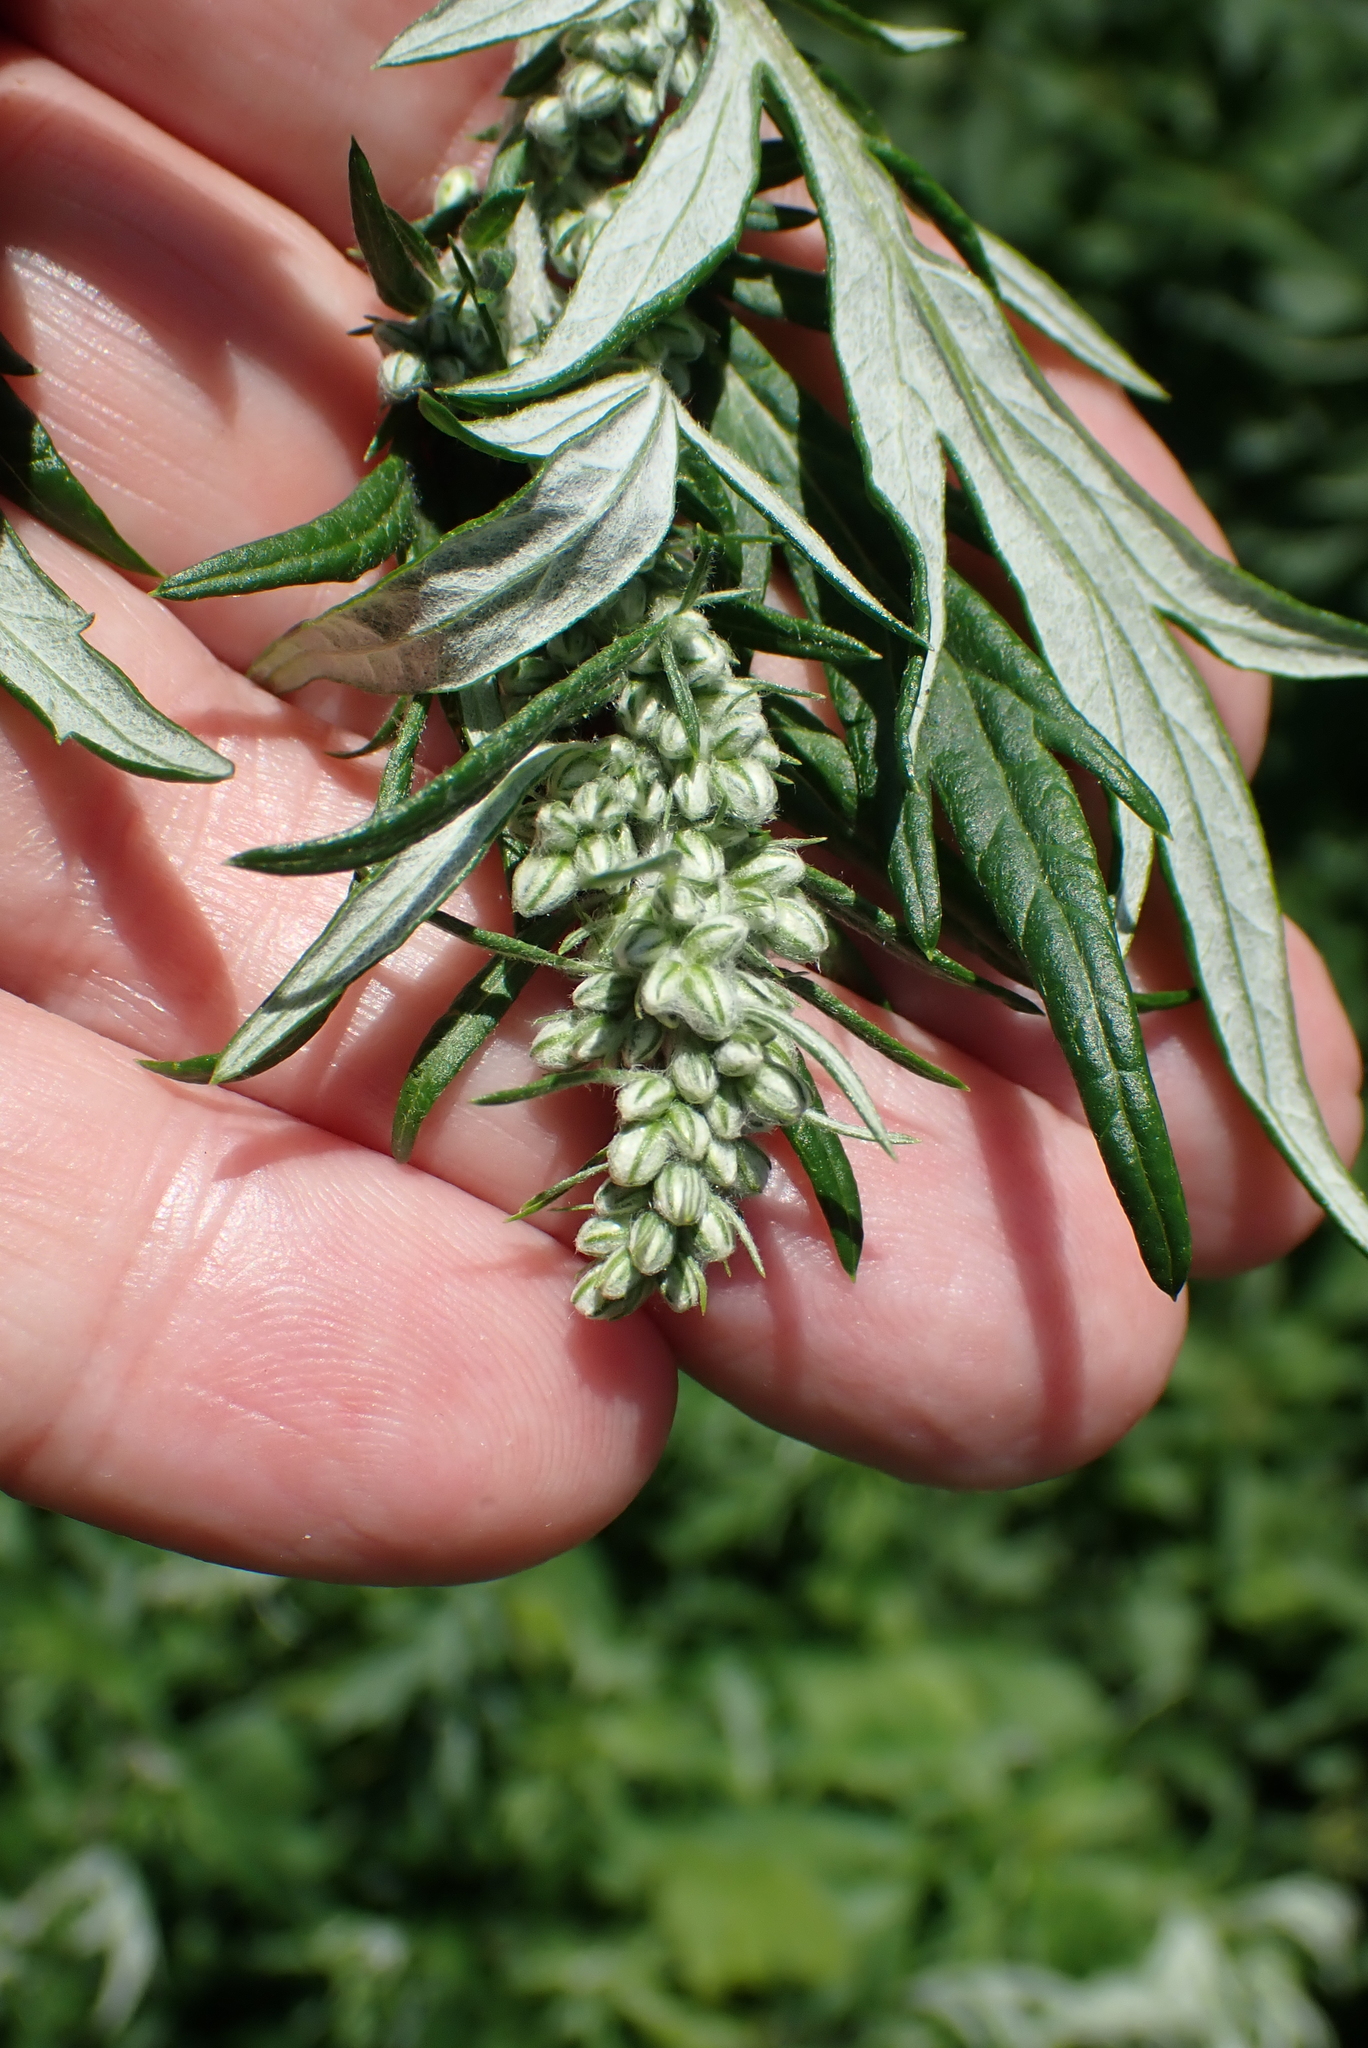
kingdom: Plantae
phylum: Tracheophyta
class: Magnoliopsida
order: Asterales
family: Asteraceae
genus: Artemisia
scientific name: Artemisia vulgaris
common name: Mugwort
